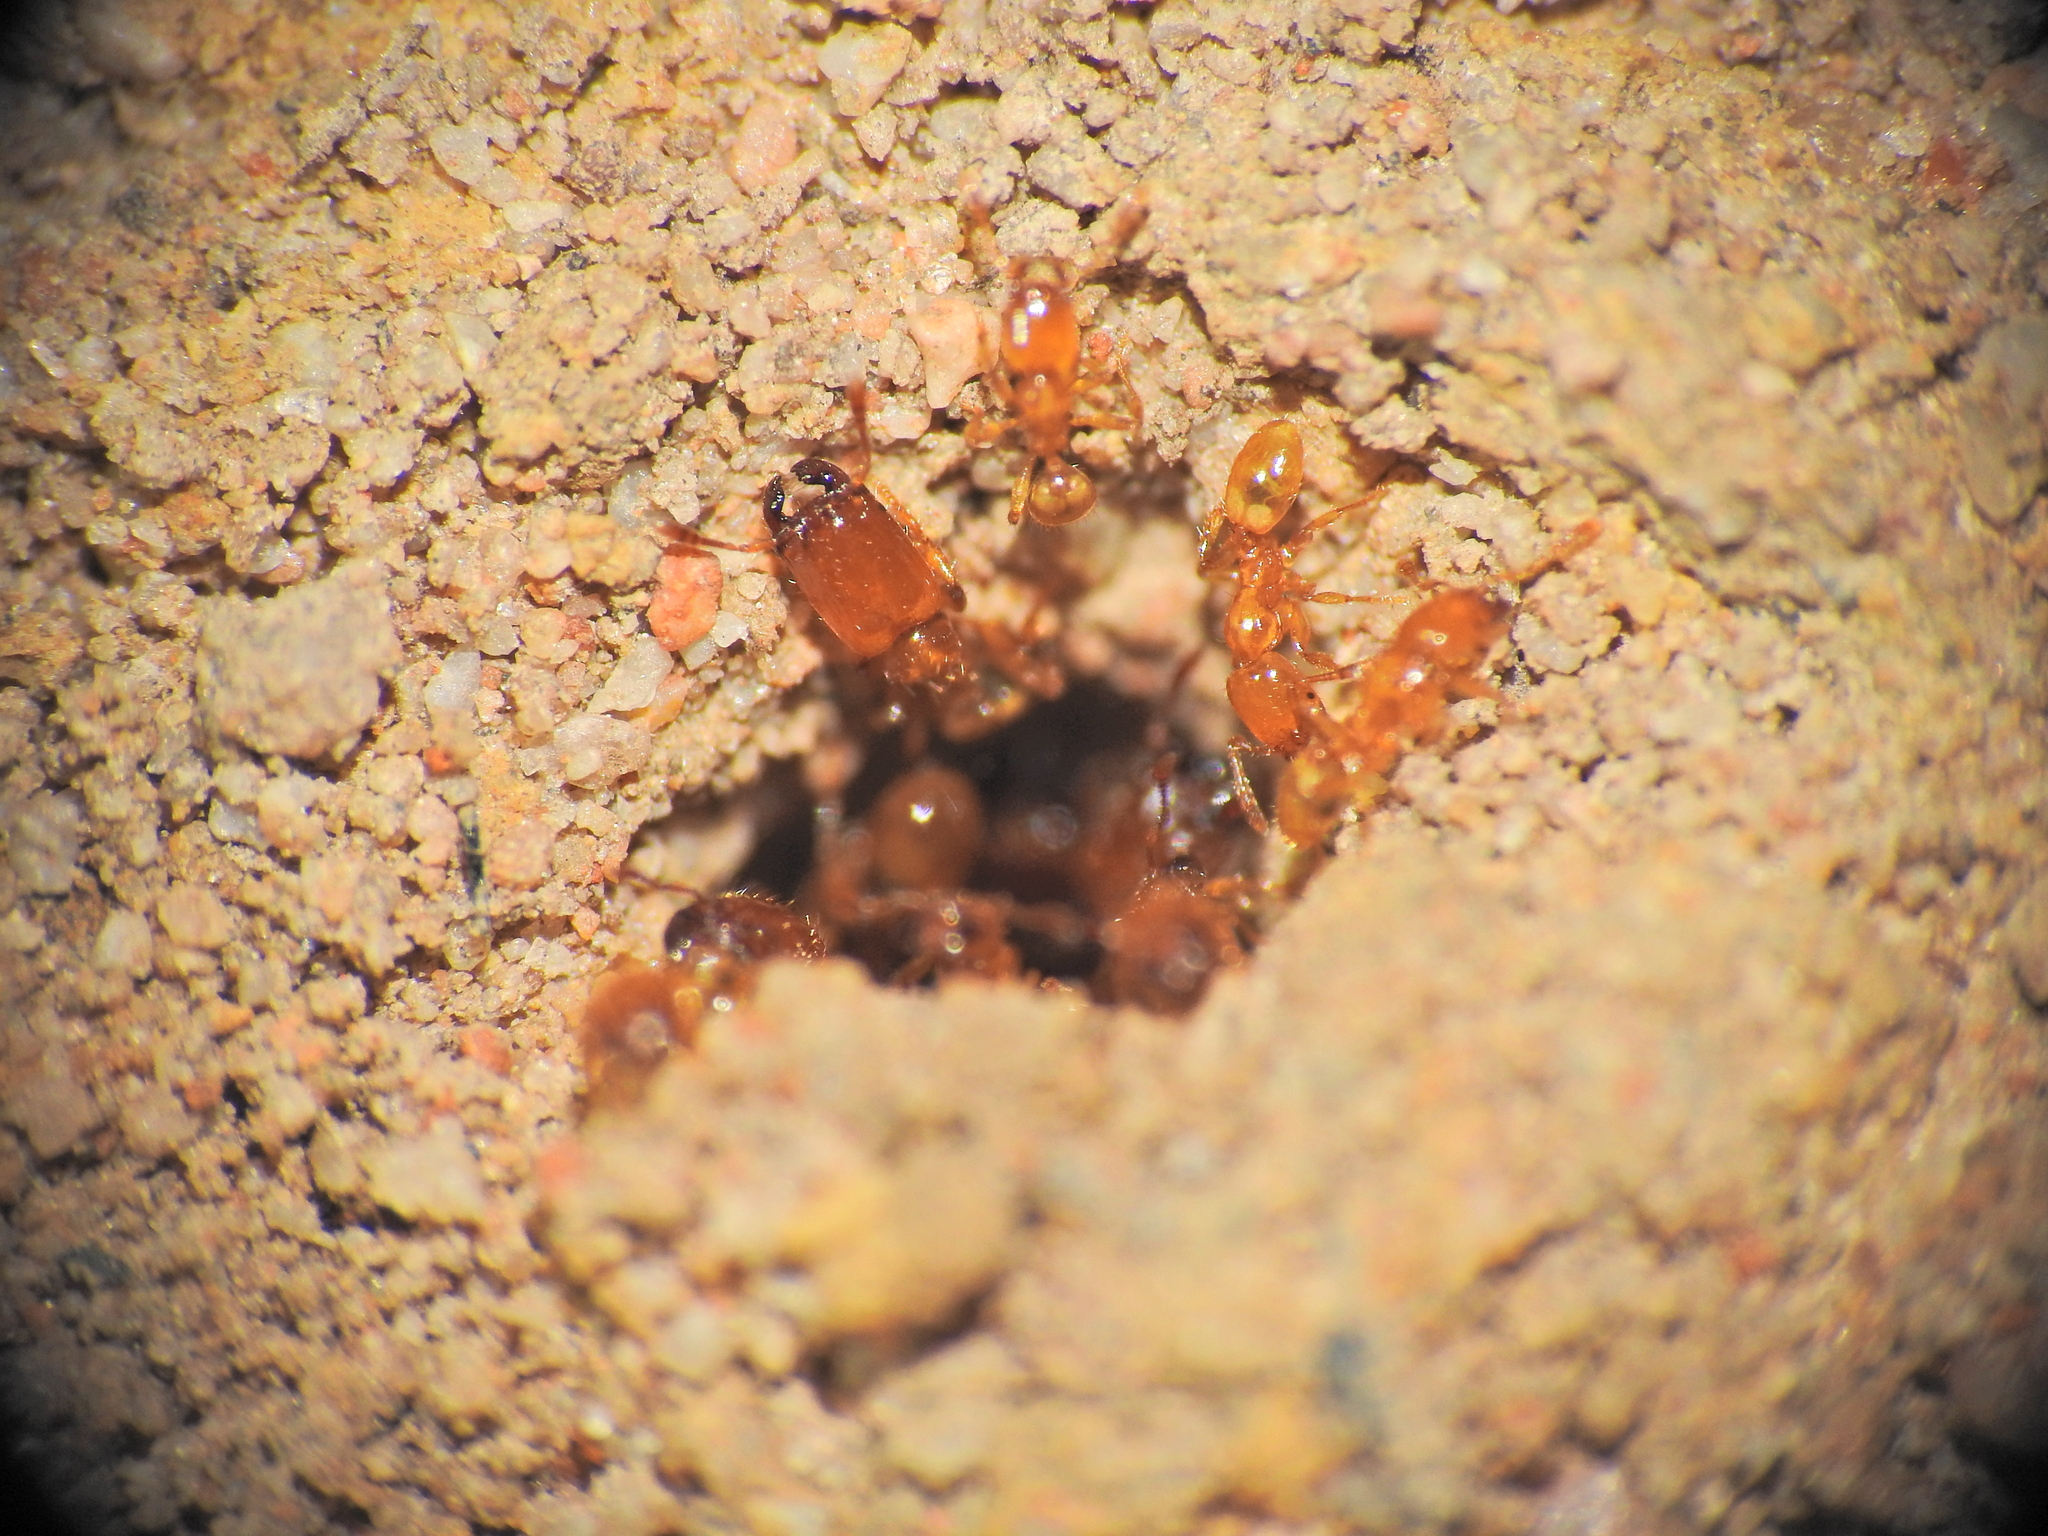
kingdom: Animalia
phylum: Arthropoda
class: Insecta
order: Hymenoptera
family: Formicidae
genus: Pheidole
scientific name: Pheidole
